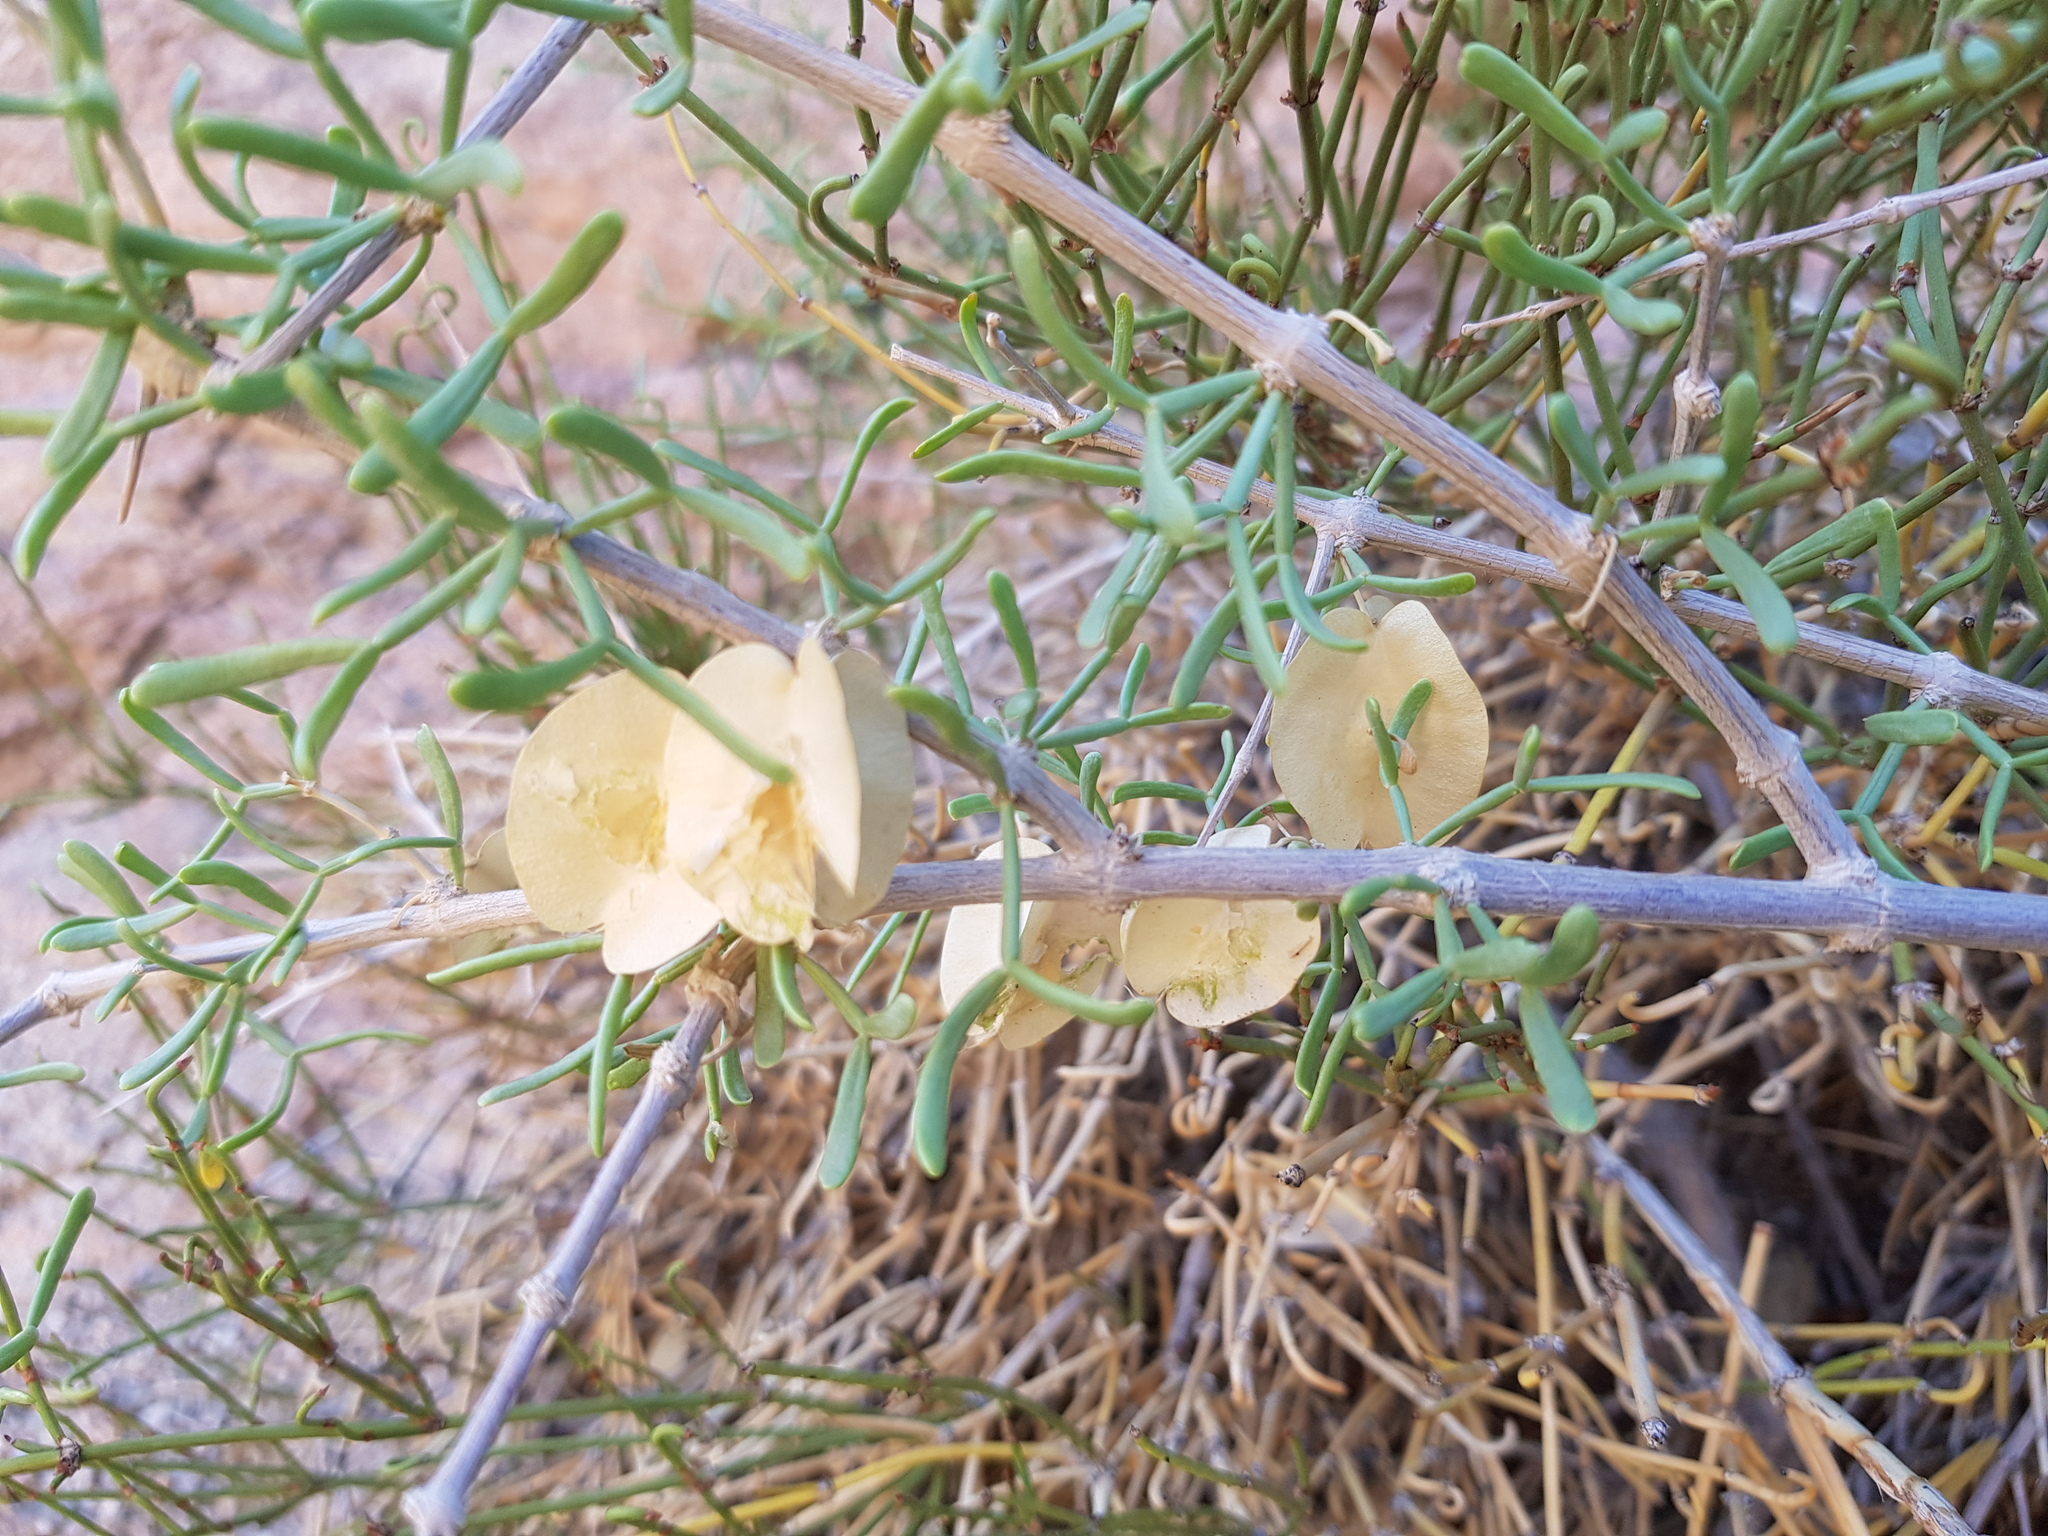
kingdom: Plantae
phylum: Tracheophyta
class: Magnoliopsida
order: Zygophyllales
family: Zygophyllaceae
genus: Zygophyllum
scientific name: Zygophyllum xanthoxylum
